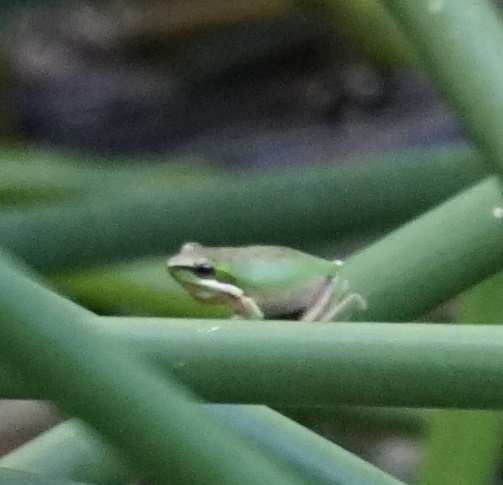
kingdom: Animalia
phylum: Chordata
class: Amphibia
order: Anura
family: Pelodryadidae
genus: Litoria
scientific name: Litoria fallax
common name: Eastern dwarf treefrog
